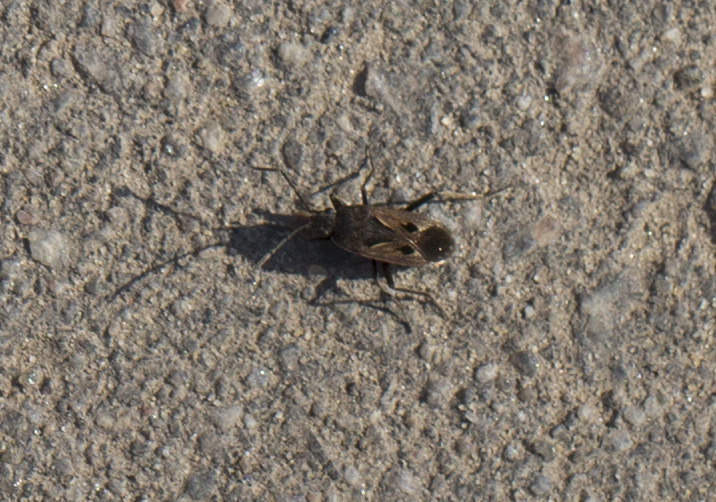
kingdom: Animalia
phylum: Arthropoda
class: Insecta
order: Hemiptera
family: Rhyparochromidae
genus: Rhyparochromus
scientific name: Rhyparochromus pini
